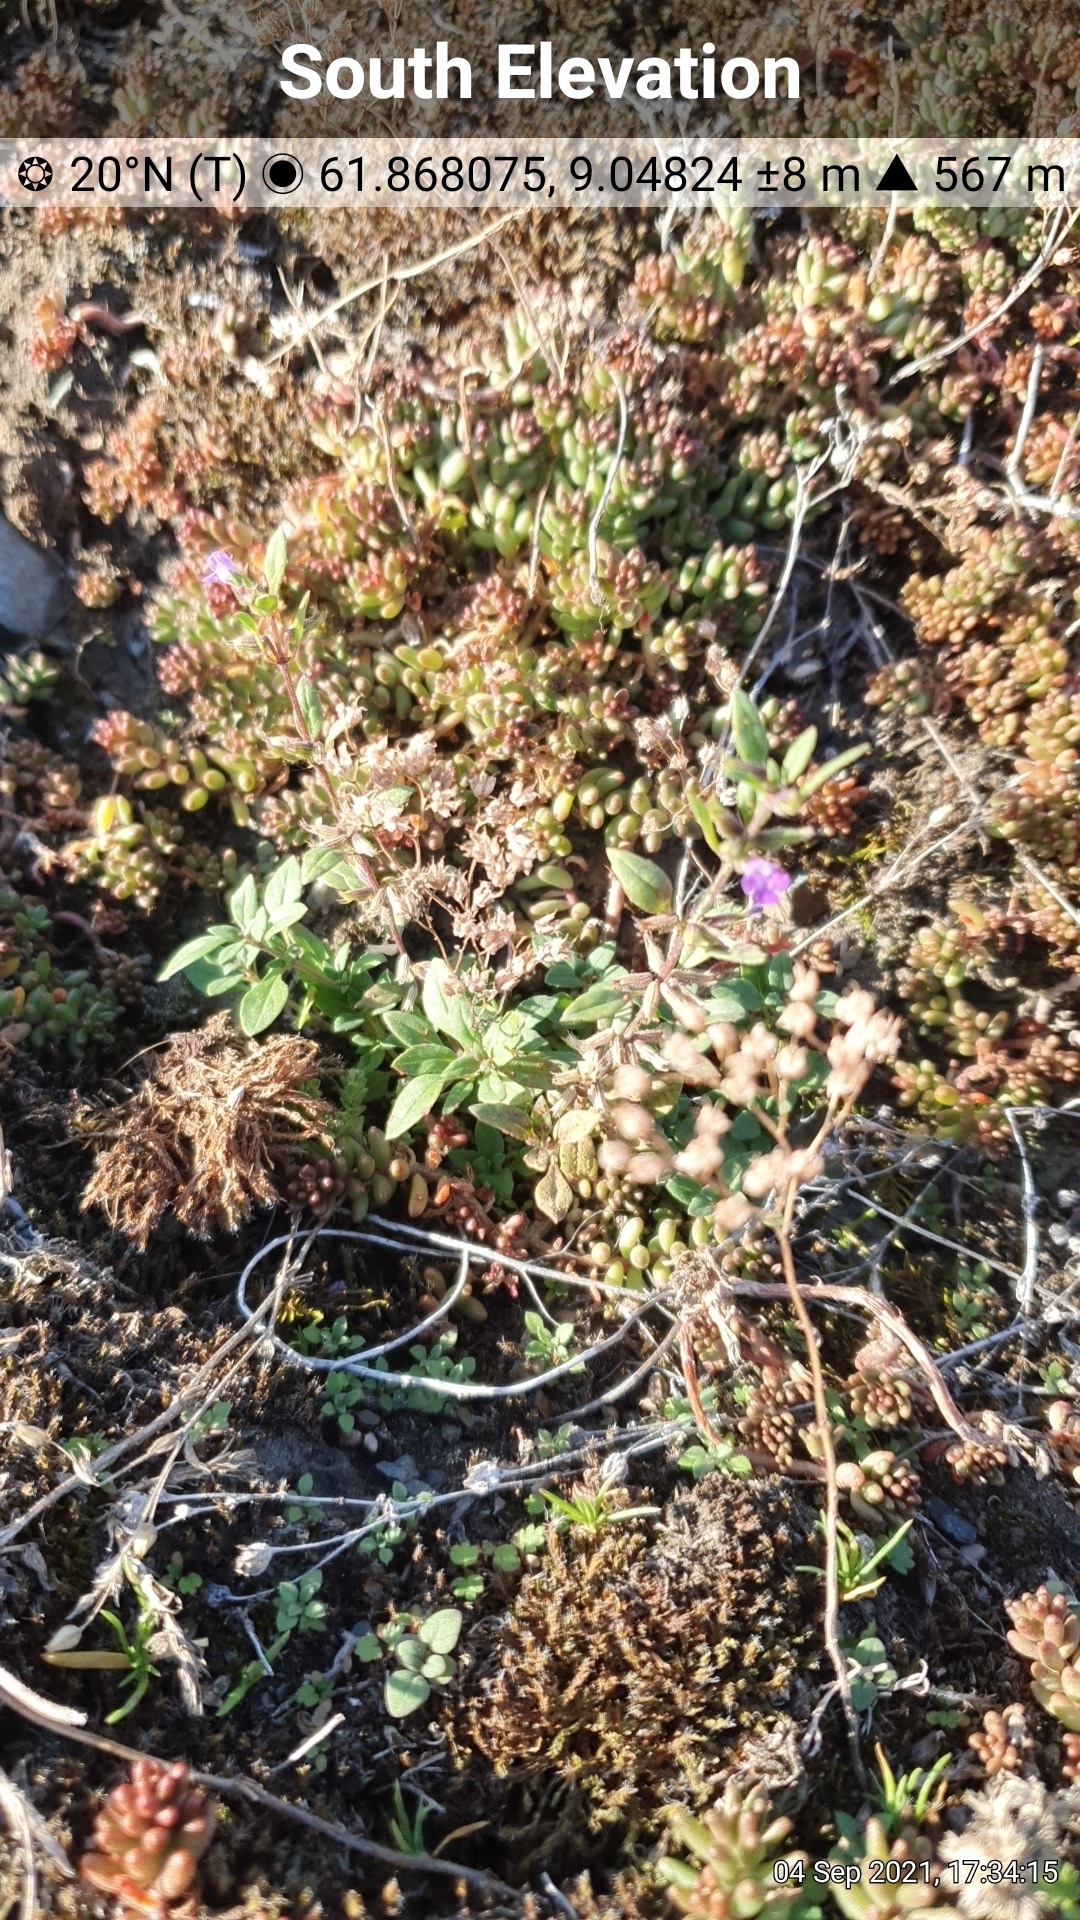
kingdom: Plantae
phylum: Tracheophyta
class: Magnoliopsida
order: Lamiales
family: Lamiaceae
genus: Clinopodium
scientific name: Clinopodium acinos
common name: Basil thyme
